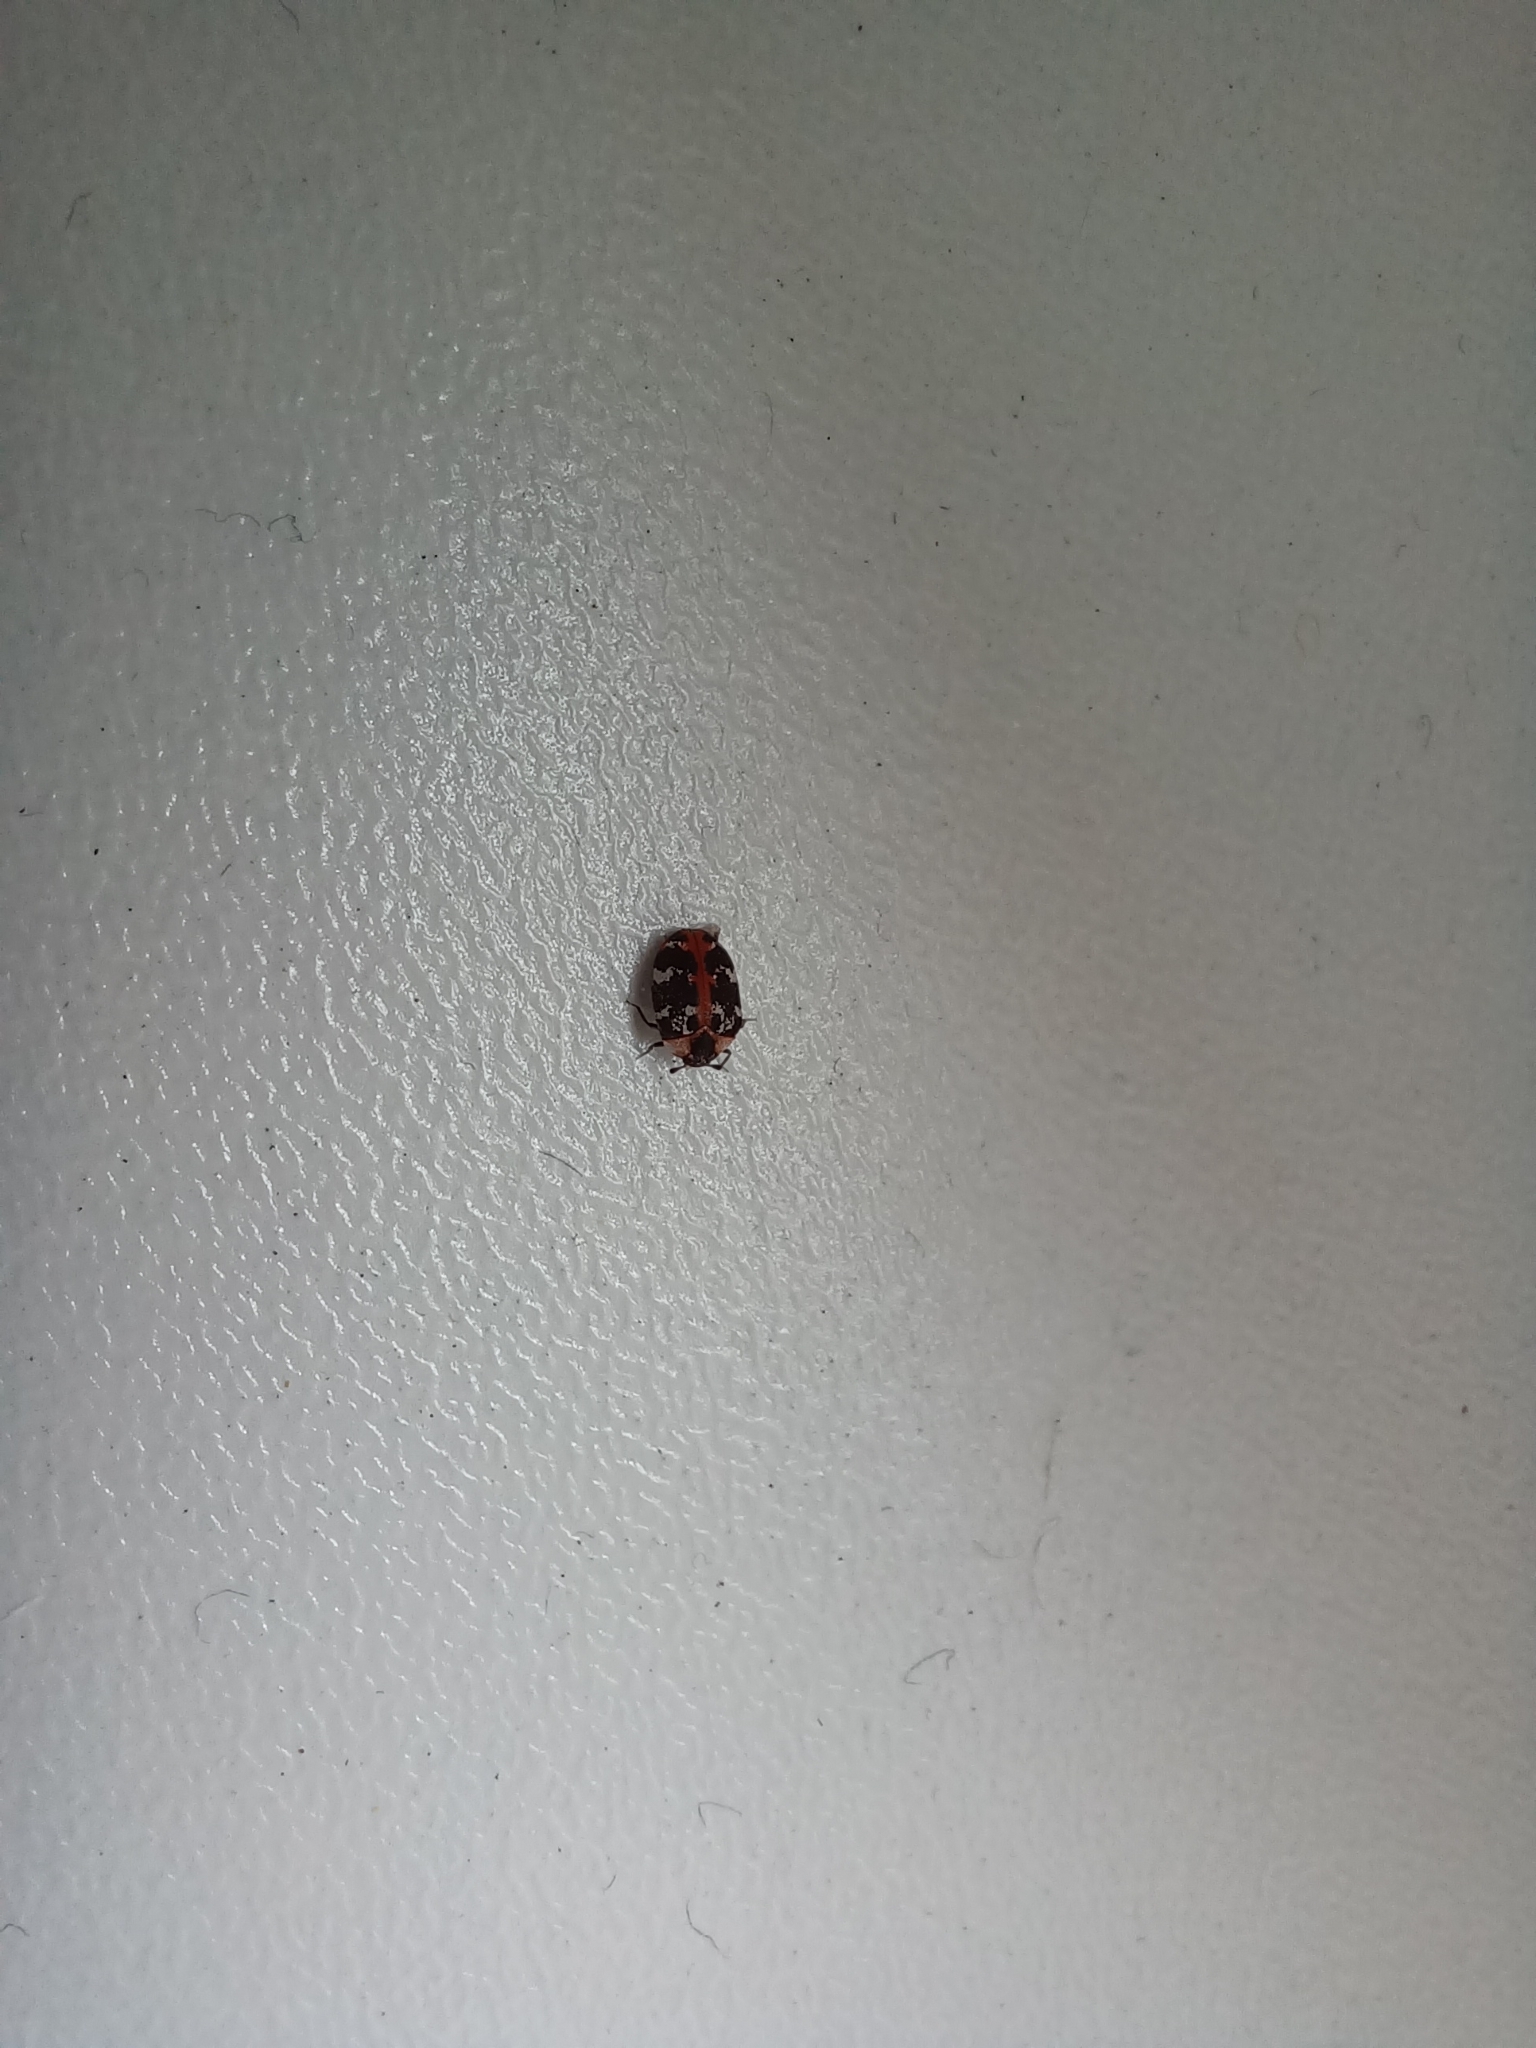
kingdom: Animalia
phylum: Arthropoda
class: Insecta
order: Coleoptera
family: Dermestidae
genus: Anthrenus
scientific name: Anthrenus scrophulariae
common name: Buffalo carpet beetle
